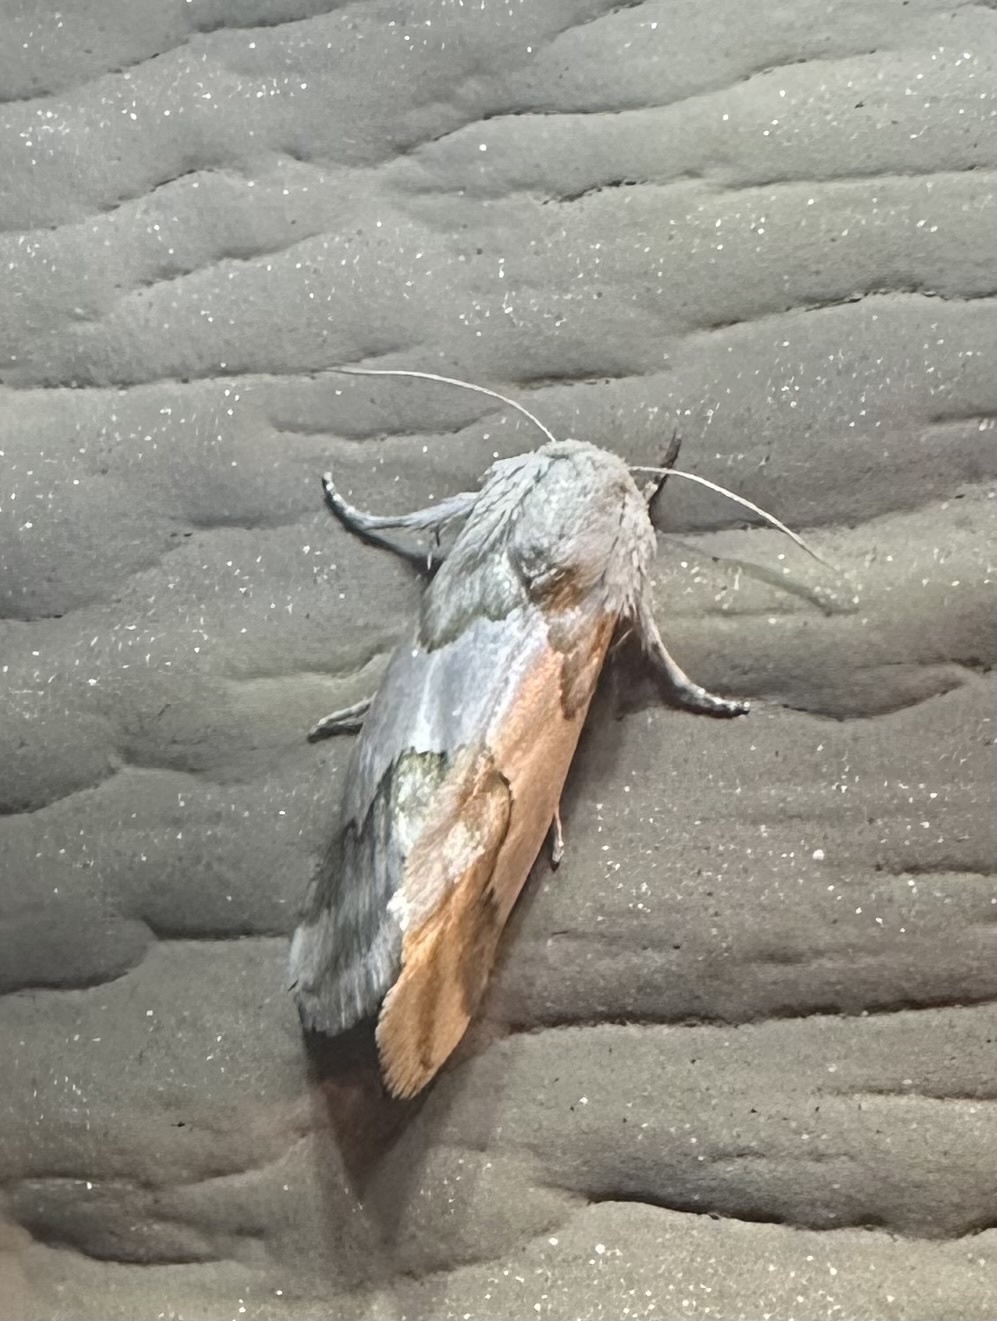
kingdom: Animalia
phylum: Arthropoda
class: Insecta
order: Lepidoptera
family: Noctuidae
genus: Schinia
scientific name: Schinia hulstia
